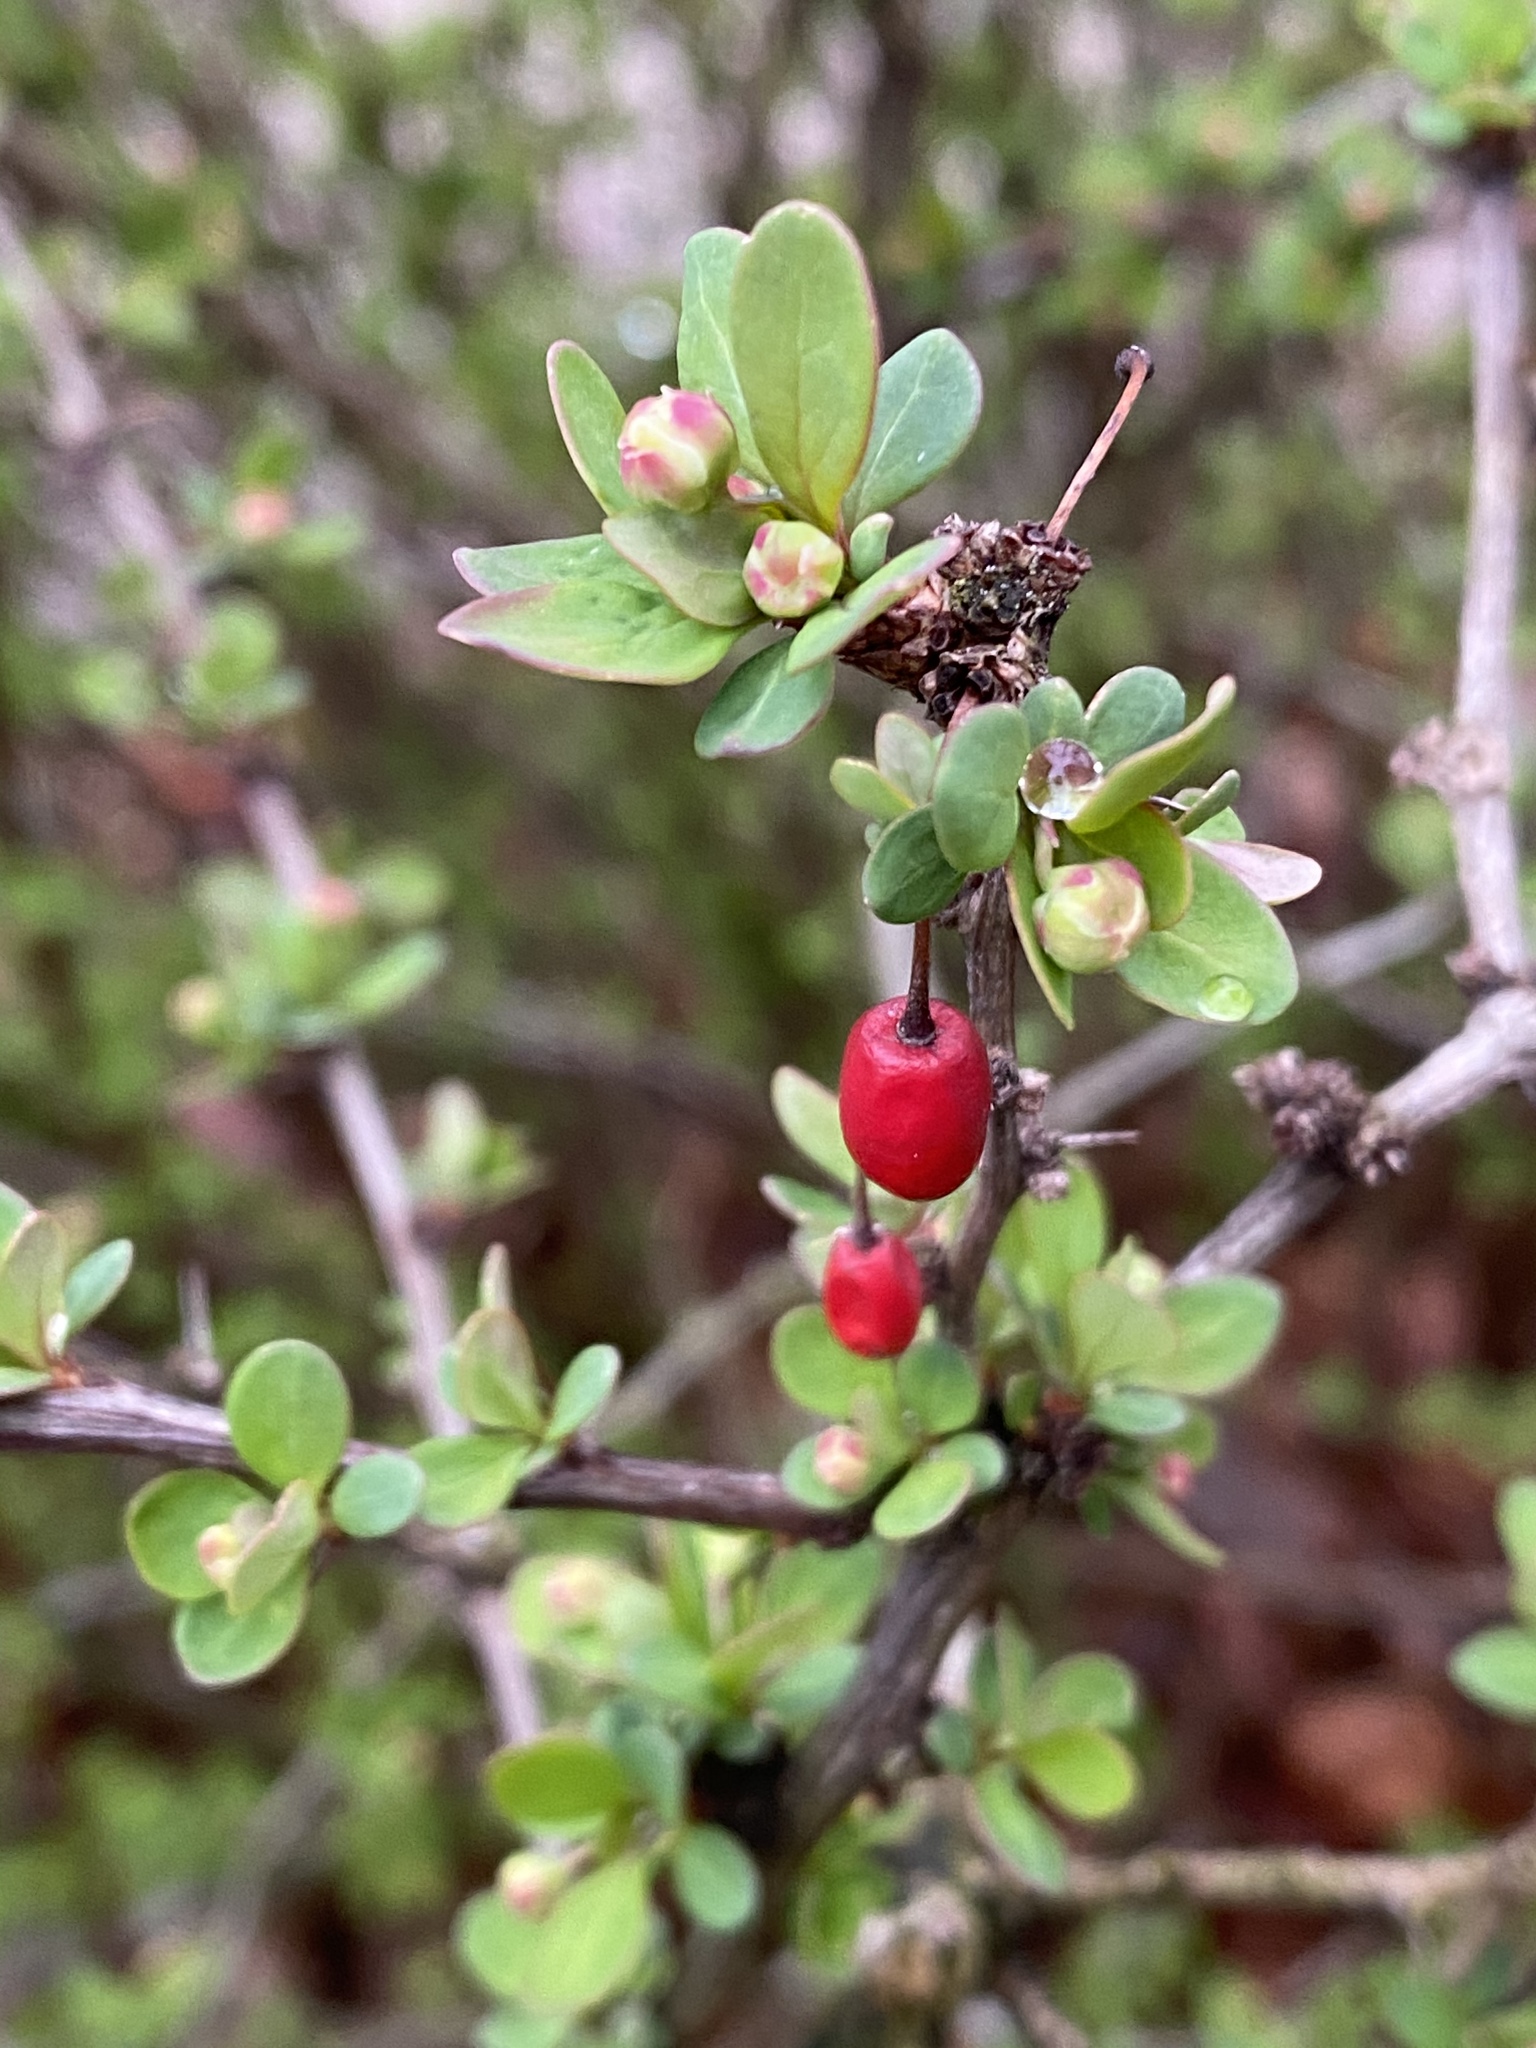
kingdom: Plantae
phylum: Tracheophyta
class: Magnoliopsida
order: Ranunculales
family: Berberidaceae
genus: Berberis
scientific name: Berberis thunbergii
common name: Japanese barberry
